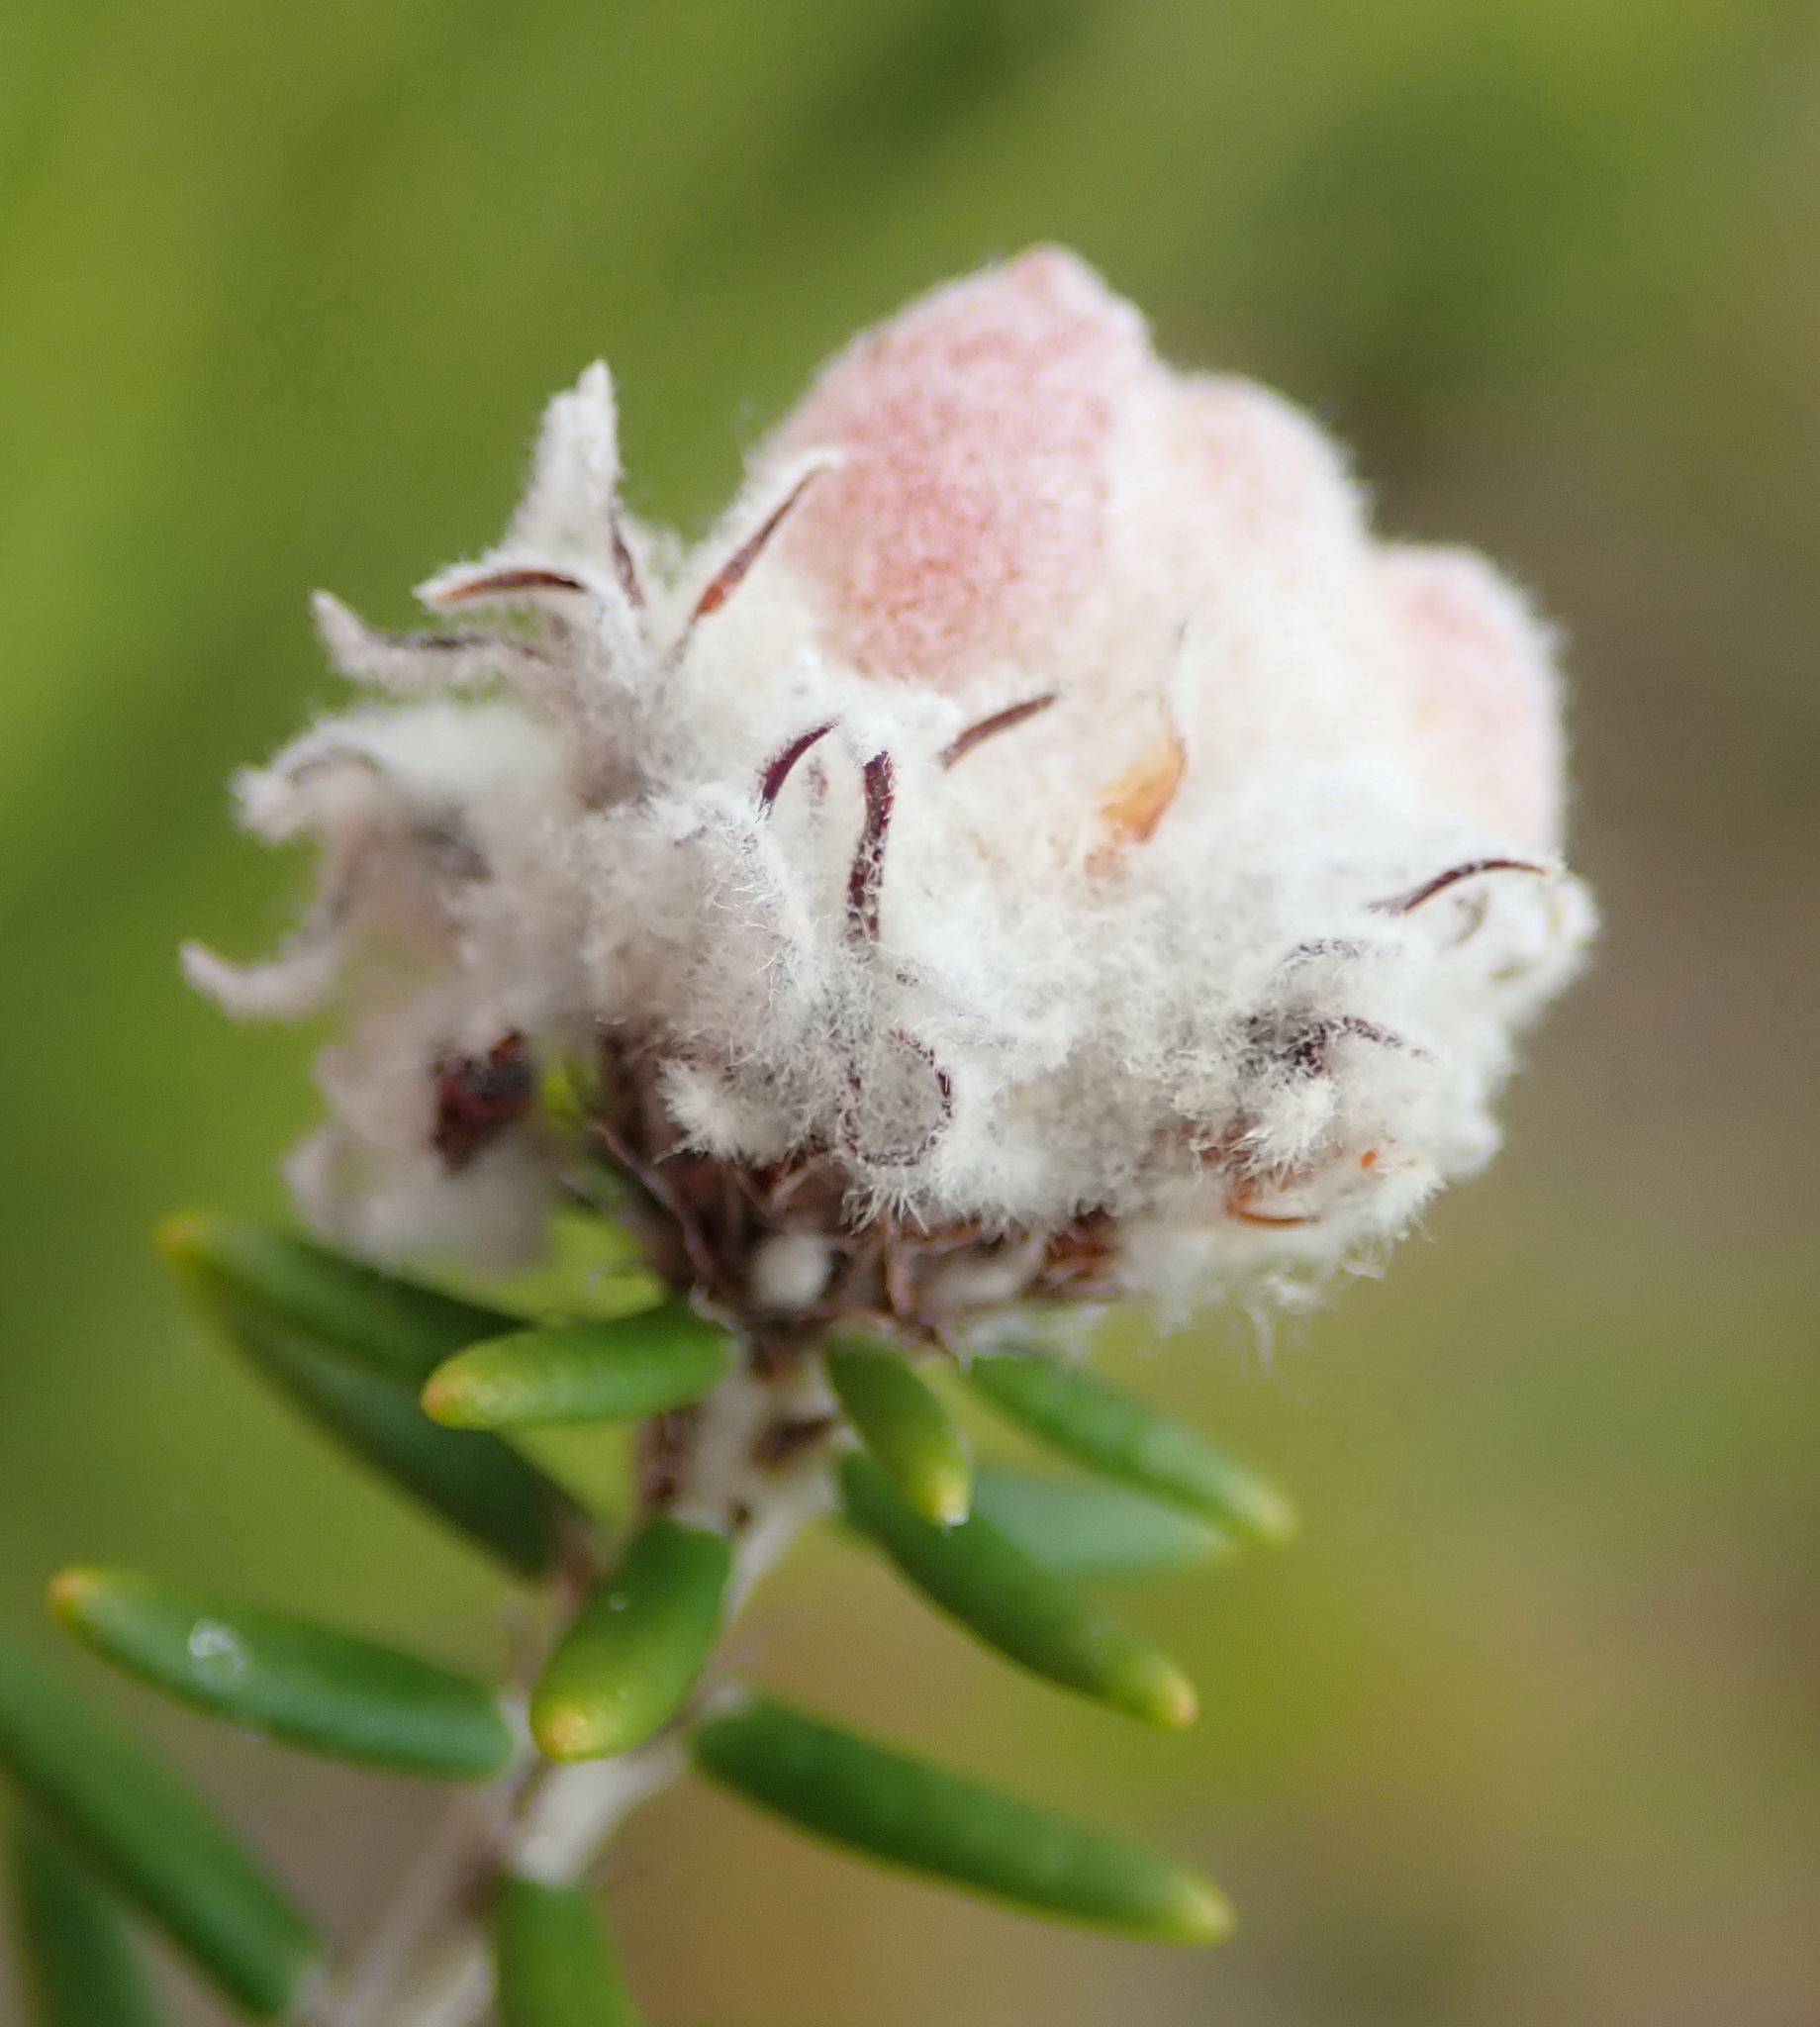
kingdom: Plantae
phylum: Tracheophyta
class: Magnoliopsida
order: Rosales
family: Rhamnaceae
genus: Trichocephalus
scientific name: Trichocephalus stipularis
